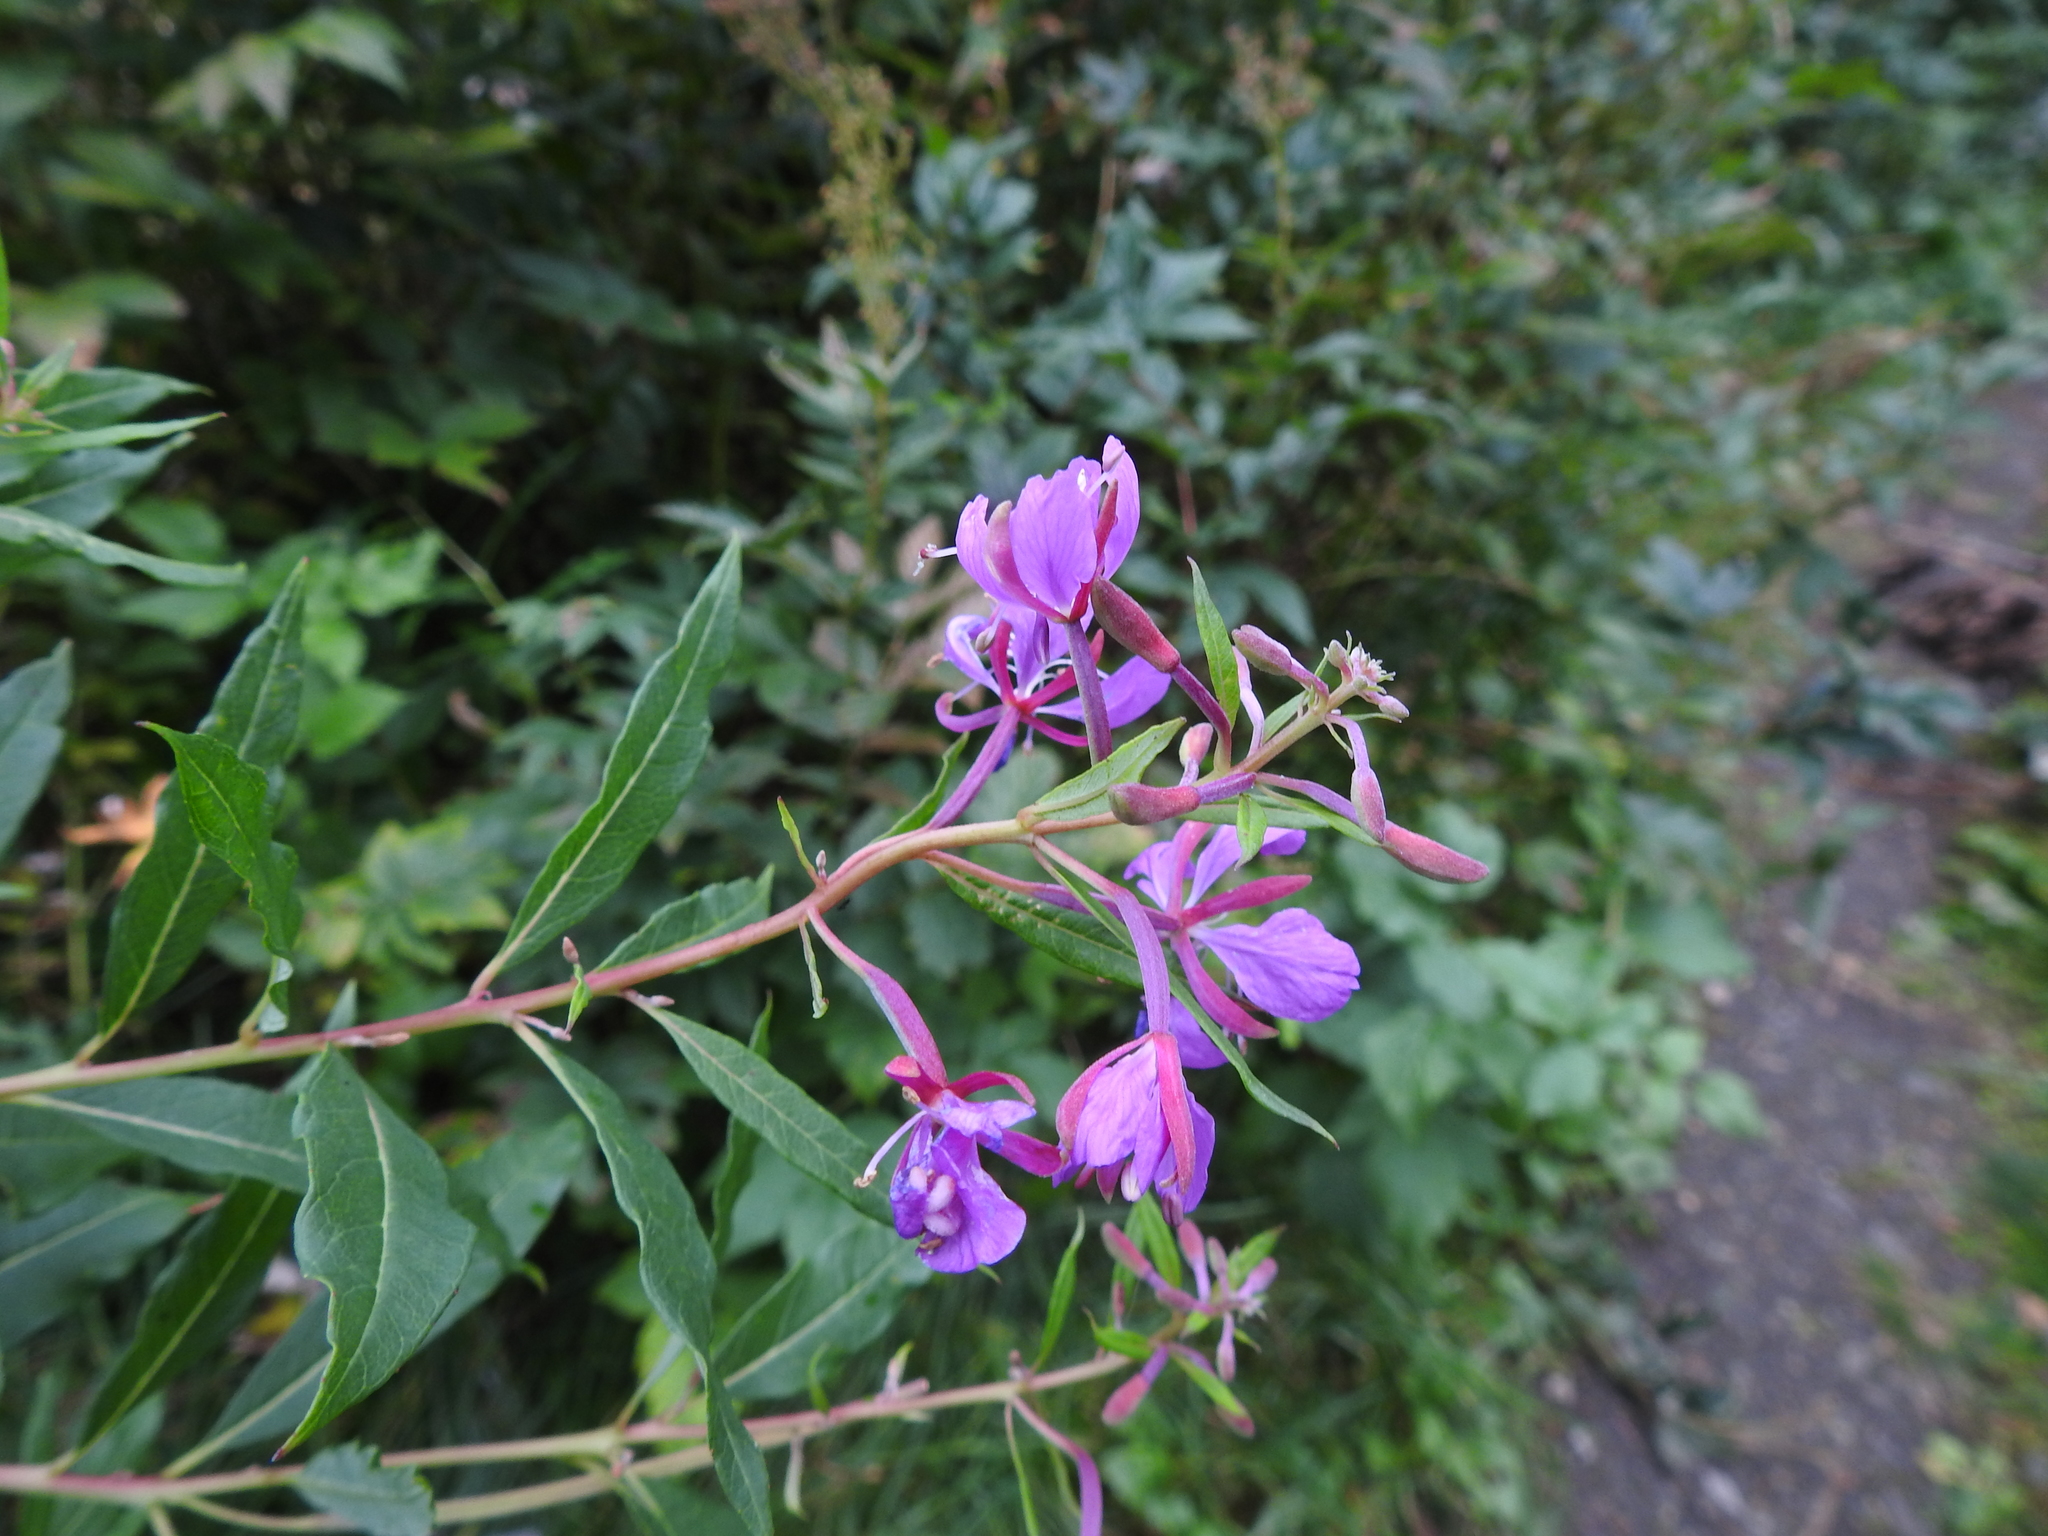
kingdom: Plantae
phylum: Tracheophyta
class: Magnoliopsida
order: Myrtales
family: Onagraceae
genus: Chamaenerion
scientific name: Chamaenerion angustifolium
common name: Fireweed
